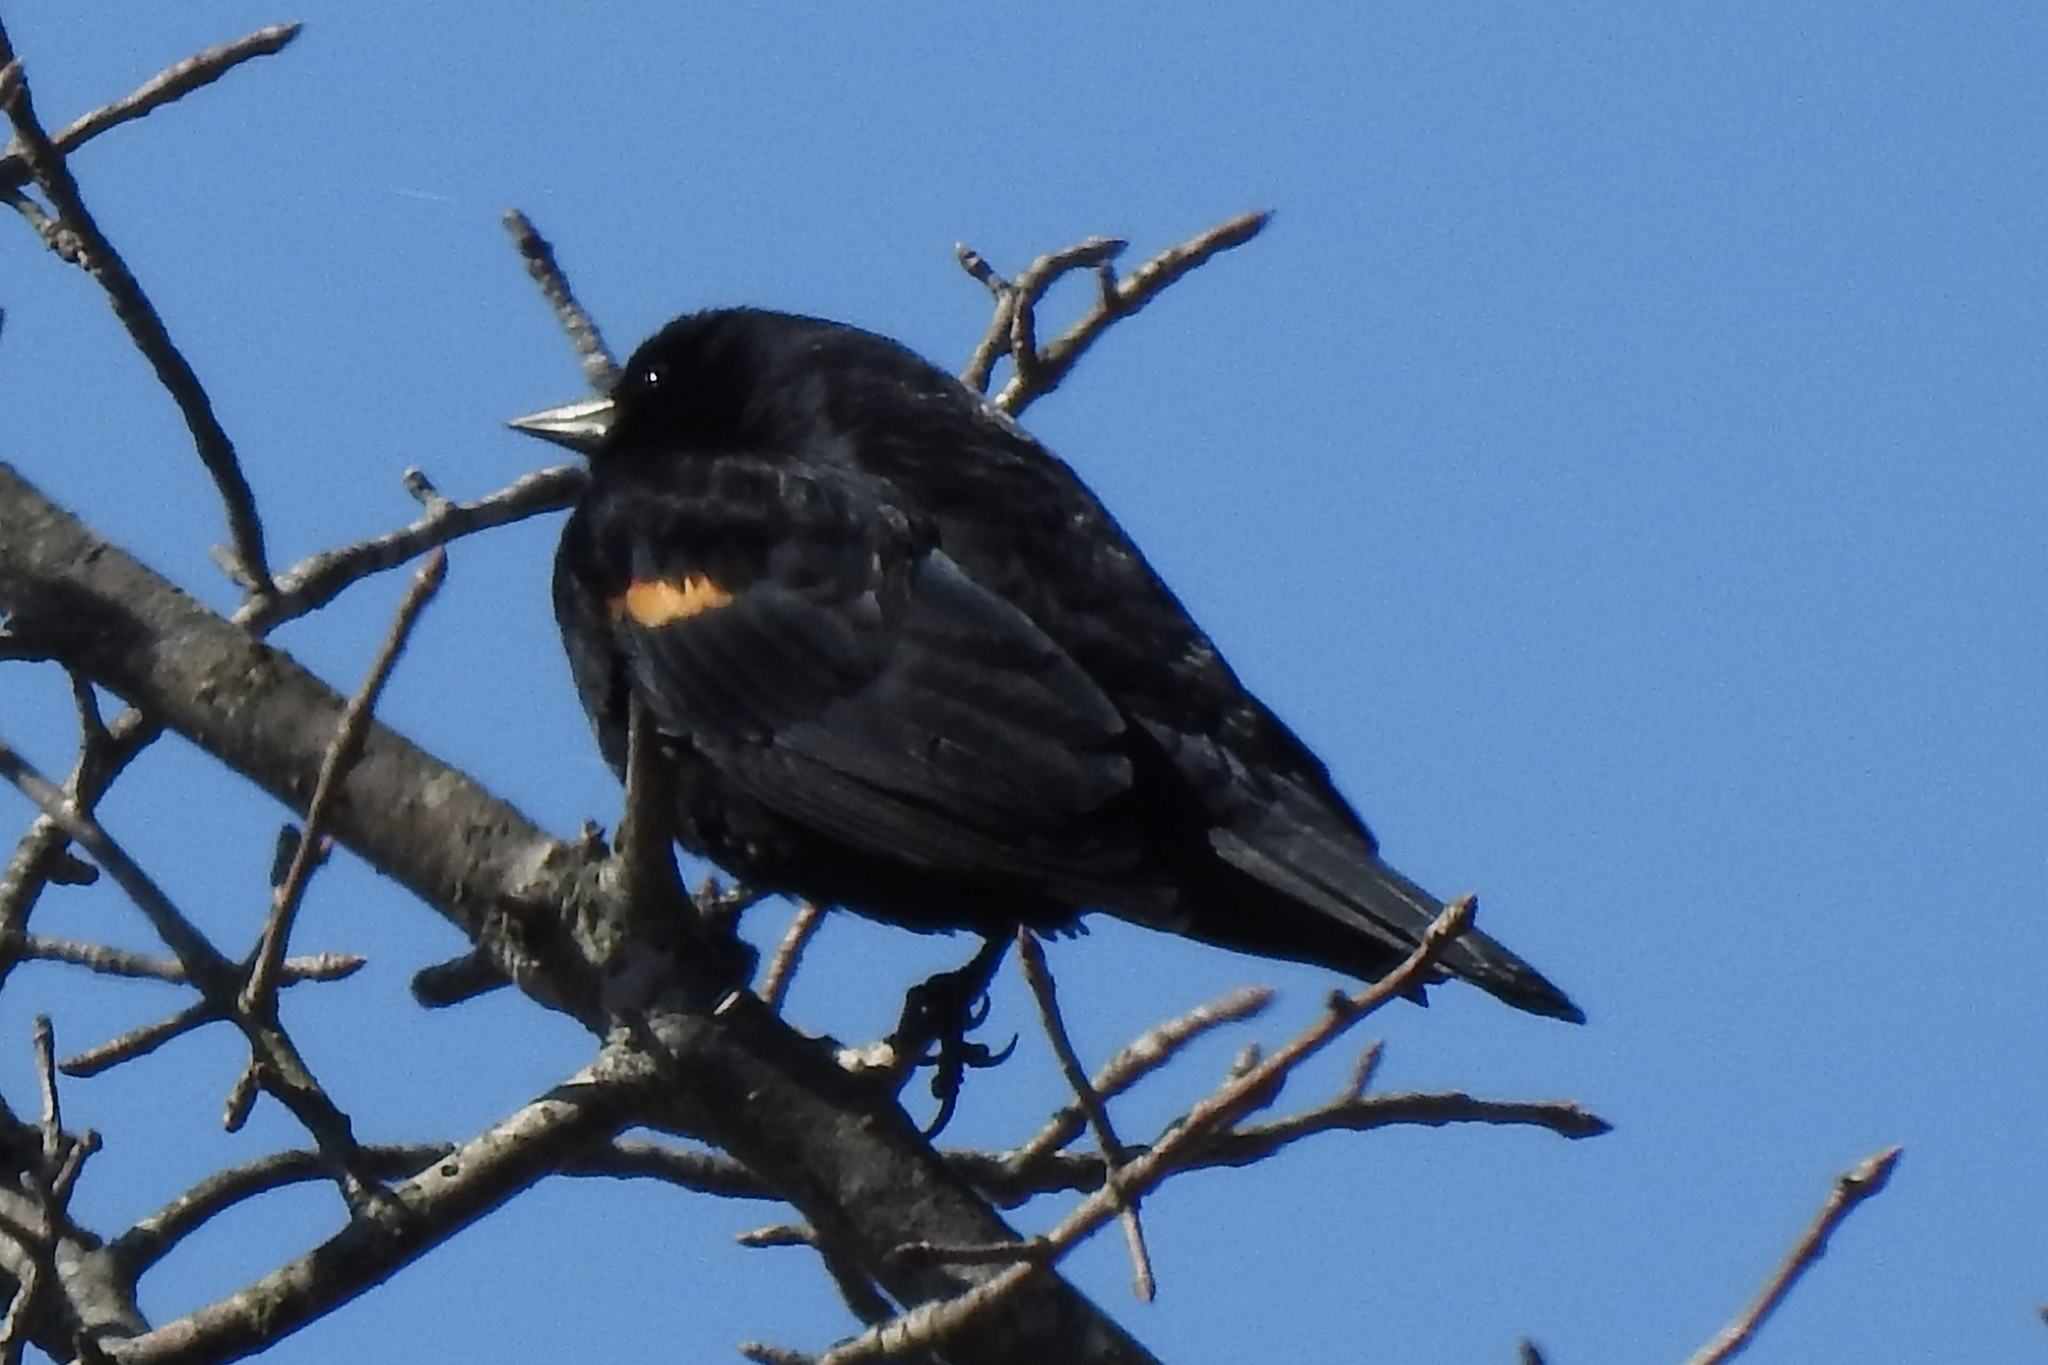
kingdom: Animalia
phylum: Chordata
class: Aves
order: Passeriformes
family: Icteridae
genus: Agelaius
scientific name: Agelaius phoeniceus
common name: Red-winged blackbird
